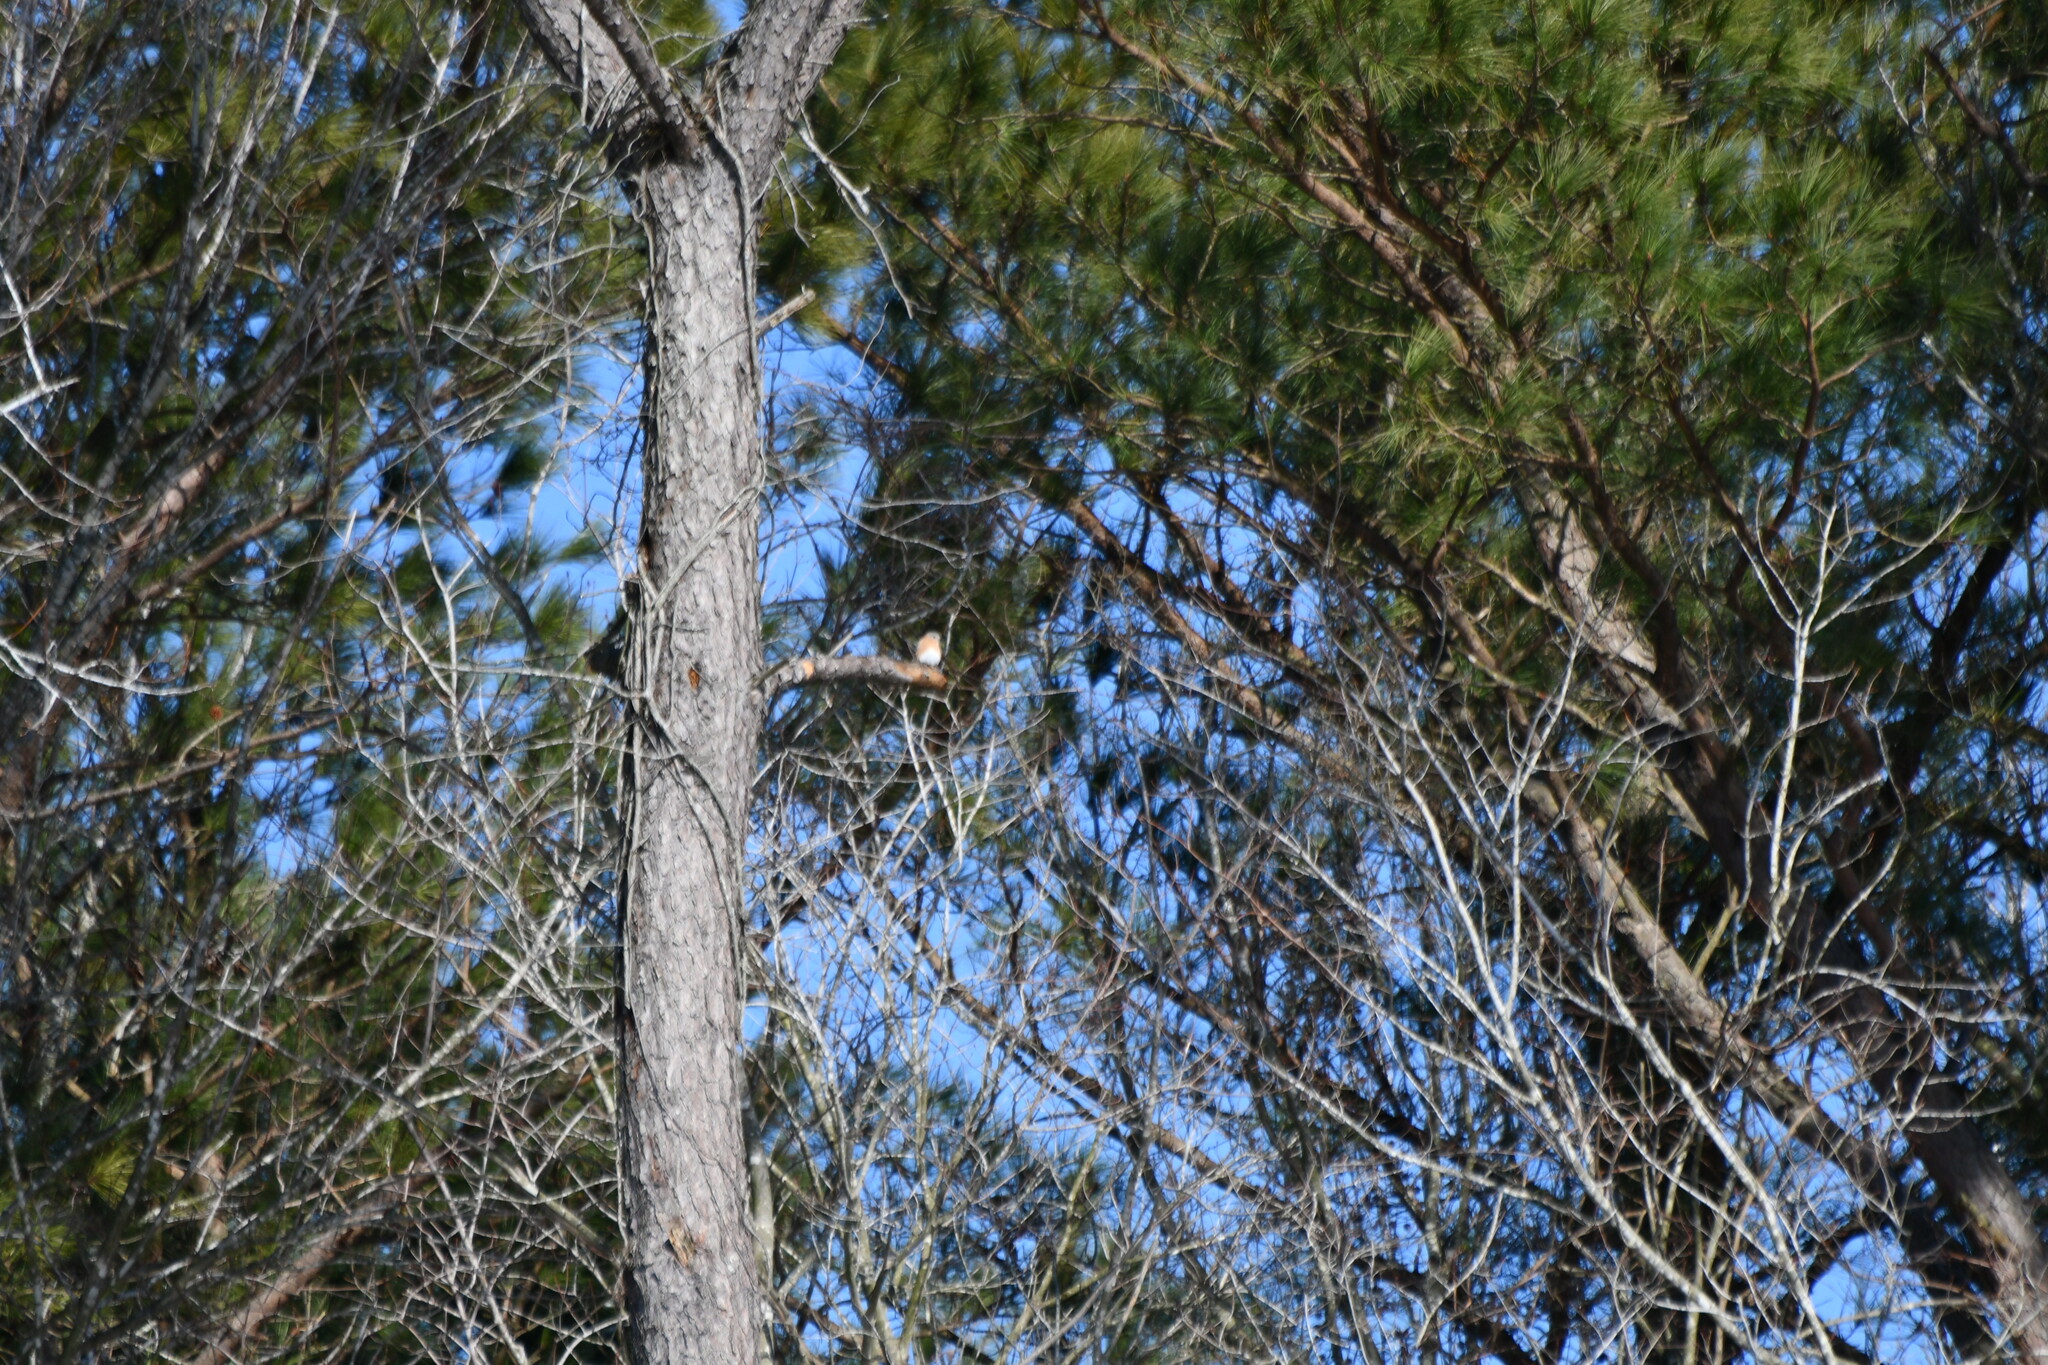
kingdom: Animalia
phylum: Chordata
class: Aves
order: Passeriformes
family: Turdidae
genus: Sialia
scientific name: Sialia sialis
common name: Eastern bluebird
